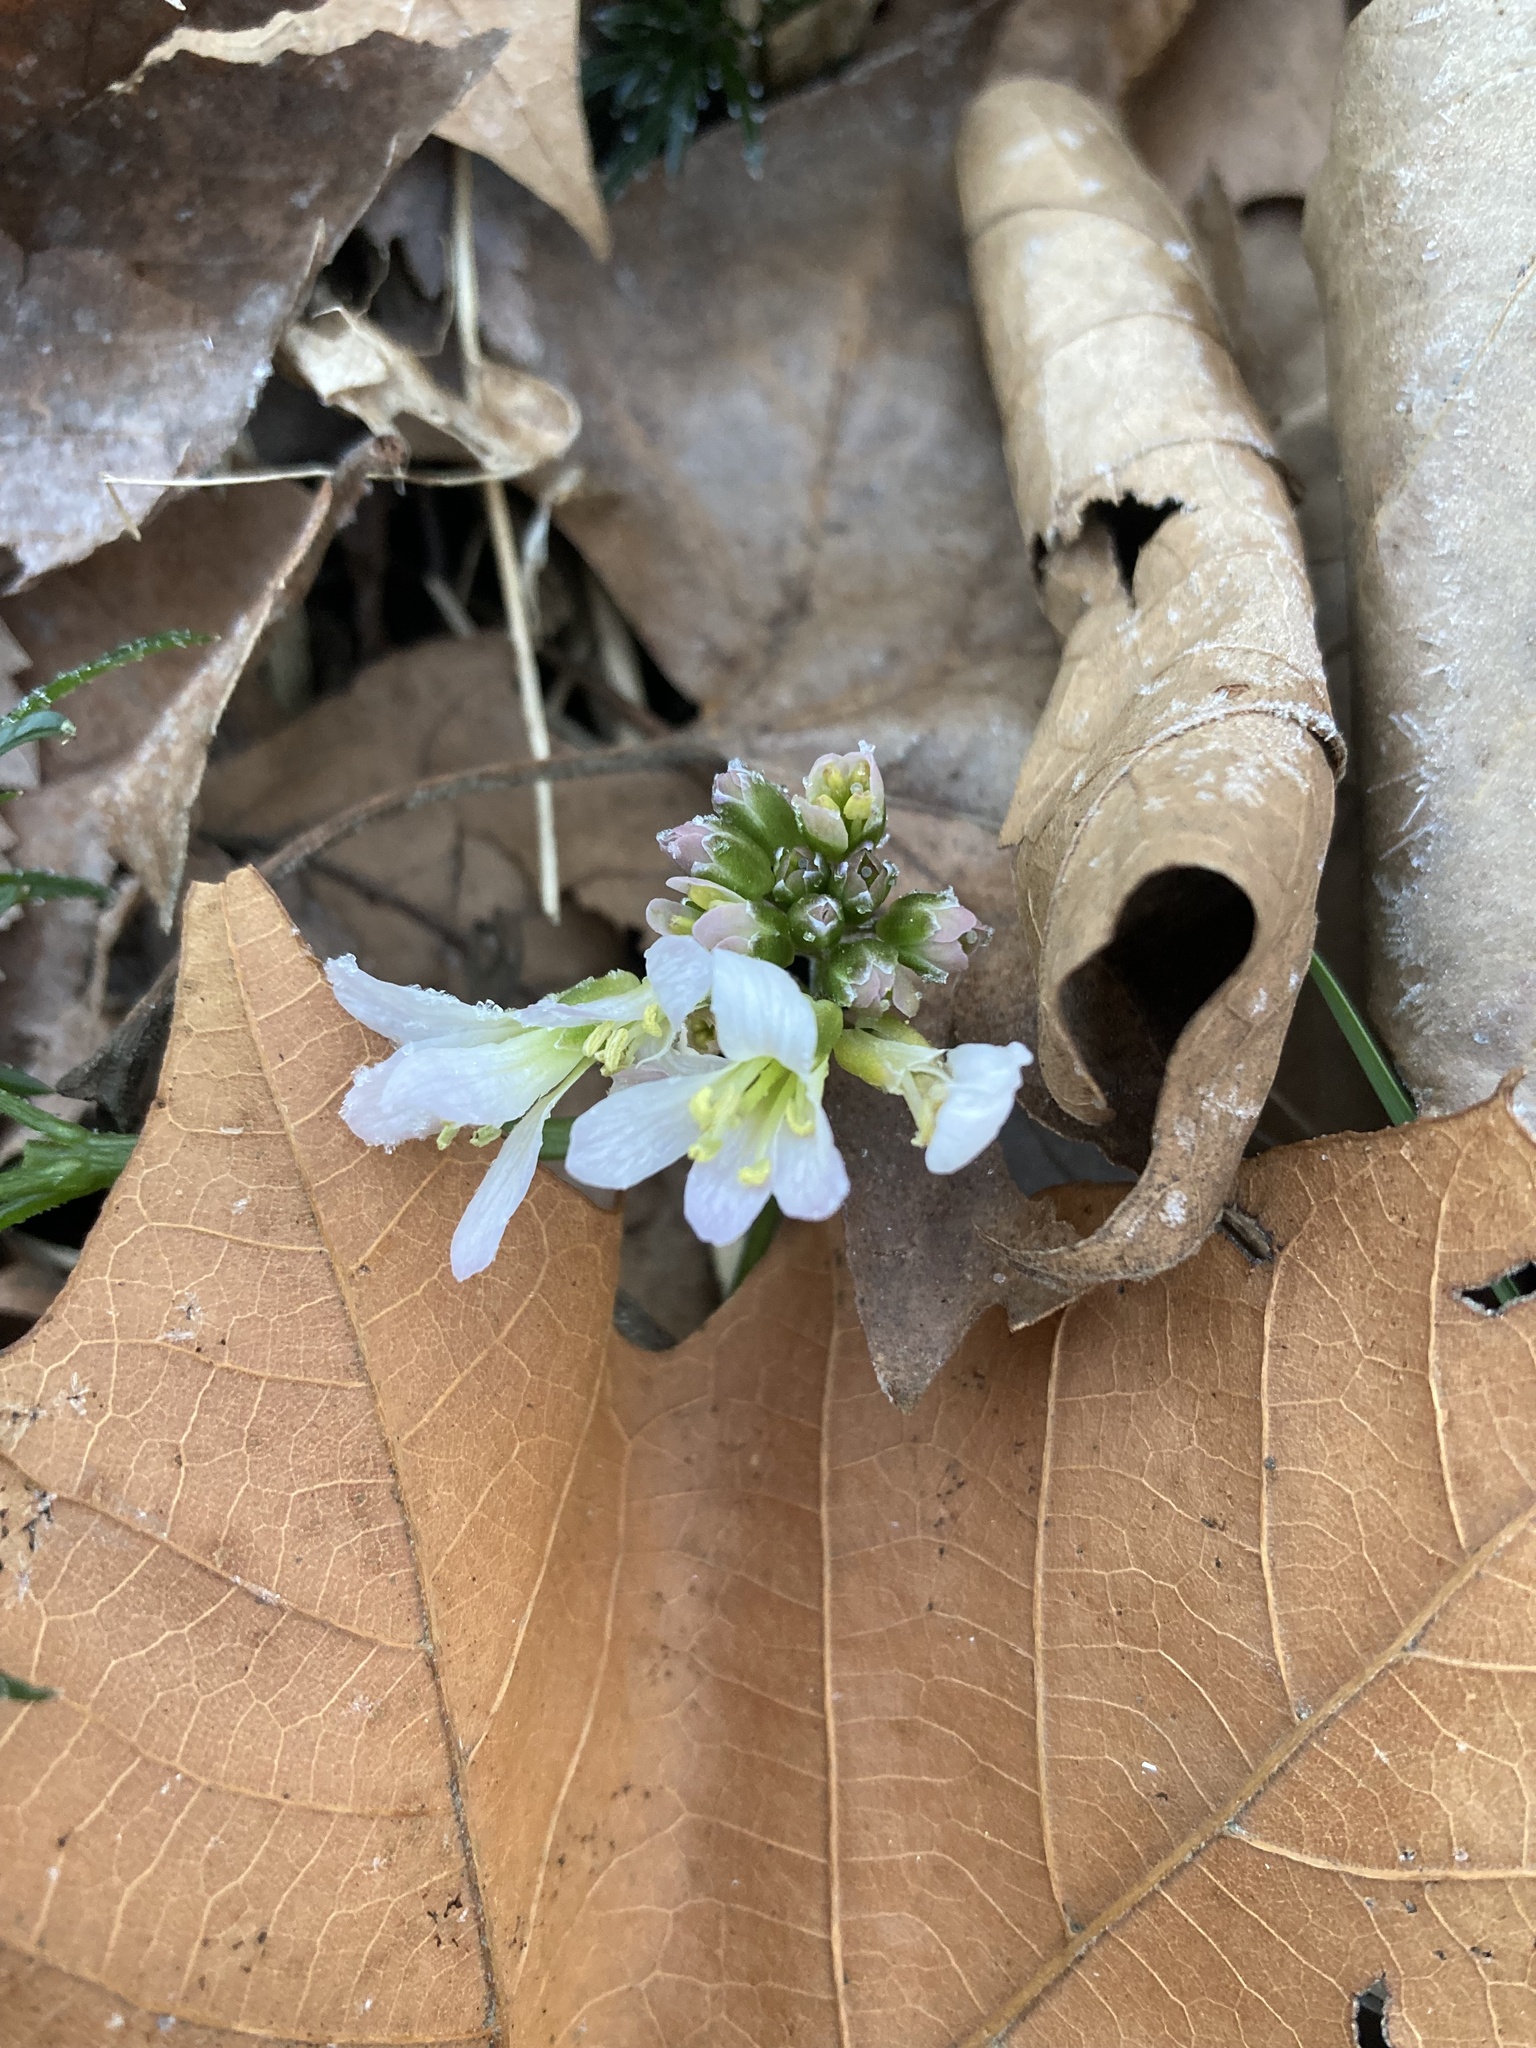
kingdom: Plantae
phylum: Tracheophyta
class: Magnoliopsida
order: Brassicales
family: Brassicaceae
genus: Cardamine
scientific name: Cardamine concatenata
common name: Cut-leaf toothcup
